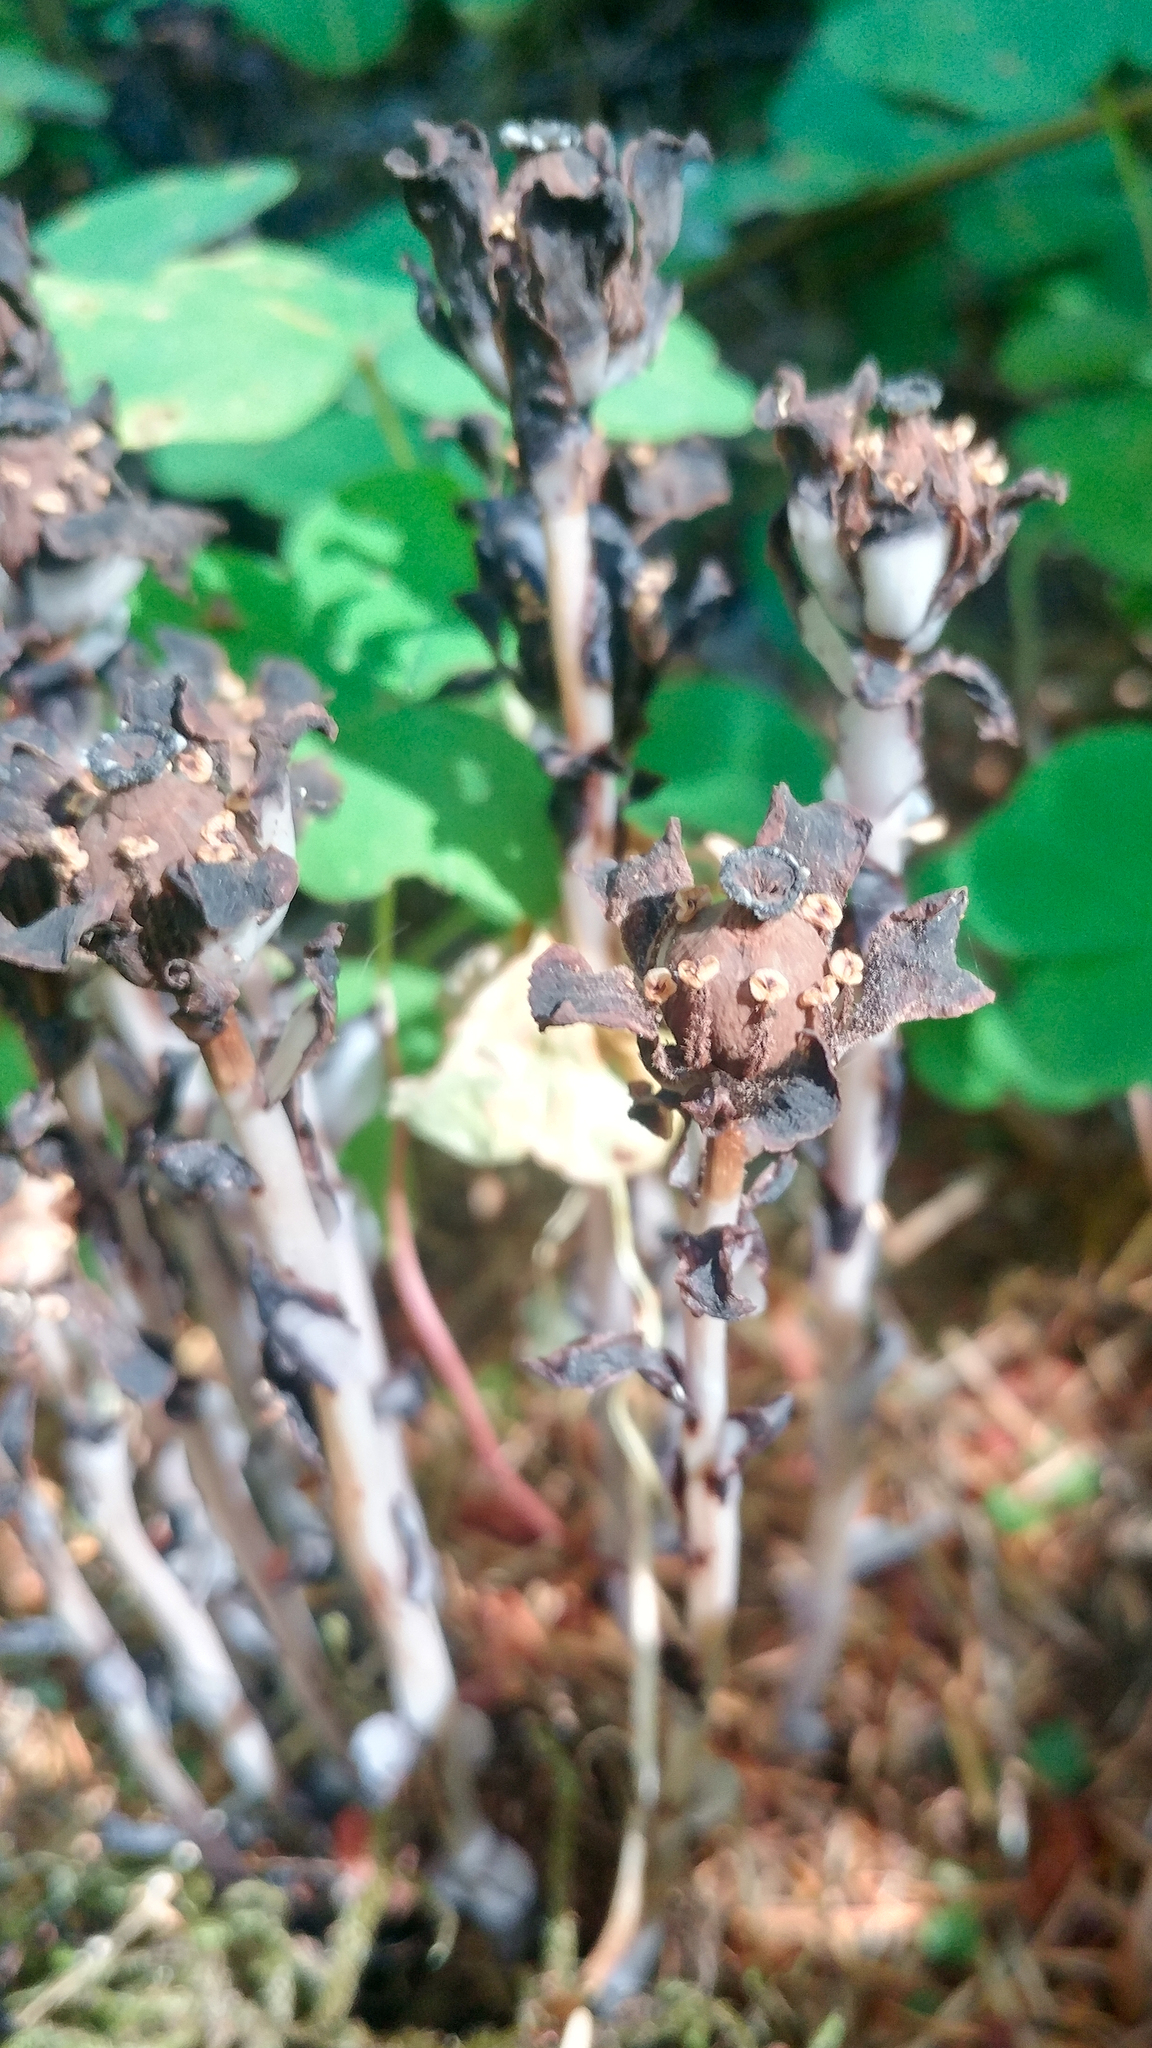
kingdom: Plantae
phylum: Tracheophyta
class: Magnoliopsida
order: Ericales
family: Ericaceae
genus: Monotropa
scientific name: Monotropa uniflora
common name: Convulsion root
